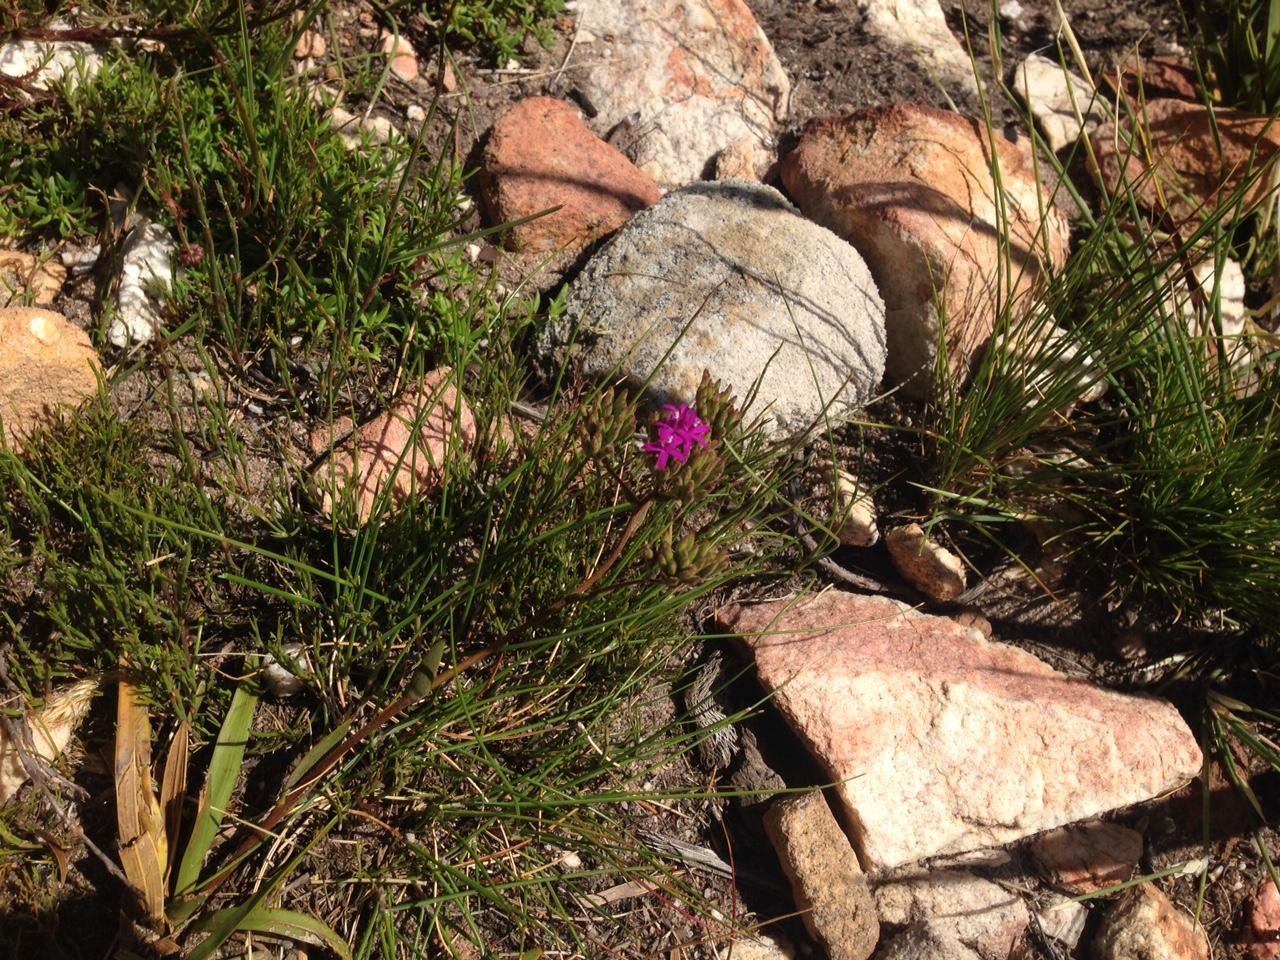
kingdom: Plantae
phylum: Tracheophyta
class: Magnoliopsida
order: Asterales
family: Asteraceae
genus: Corymbium
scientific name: Corymbium africanum
